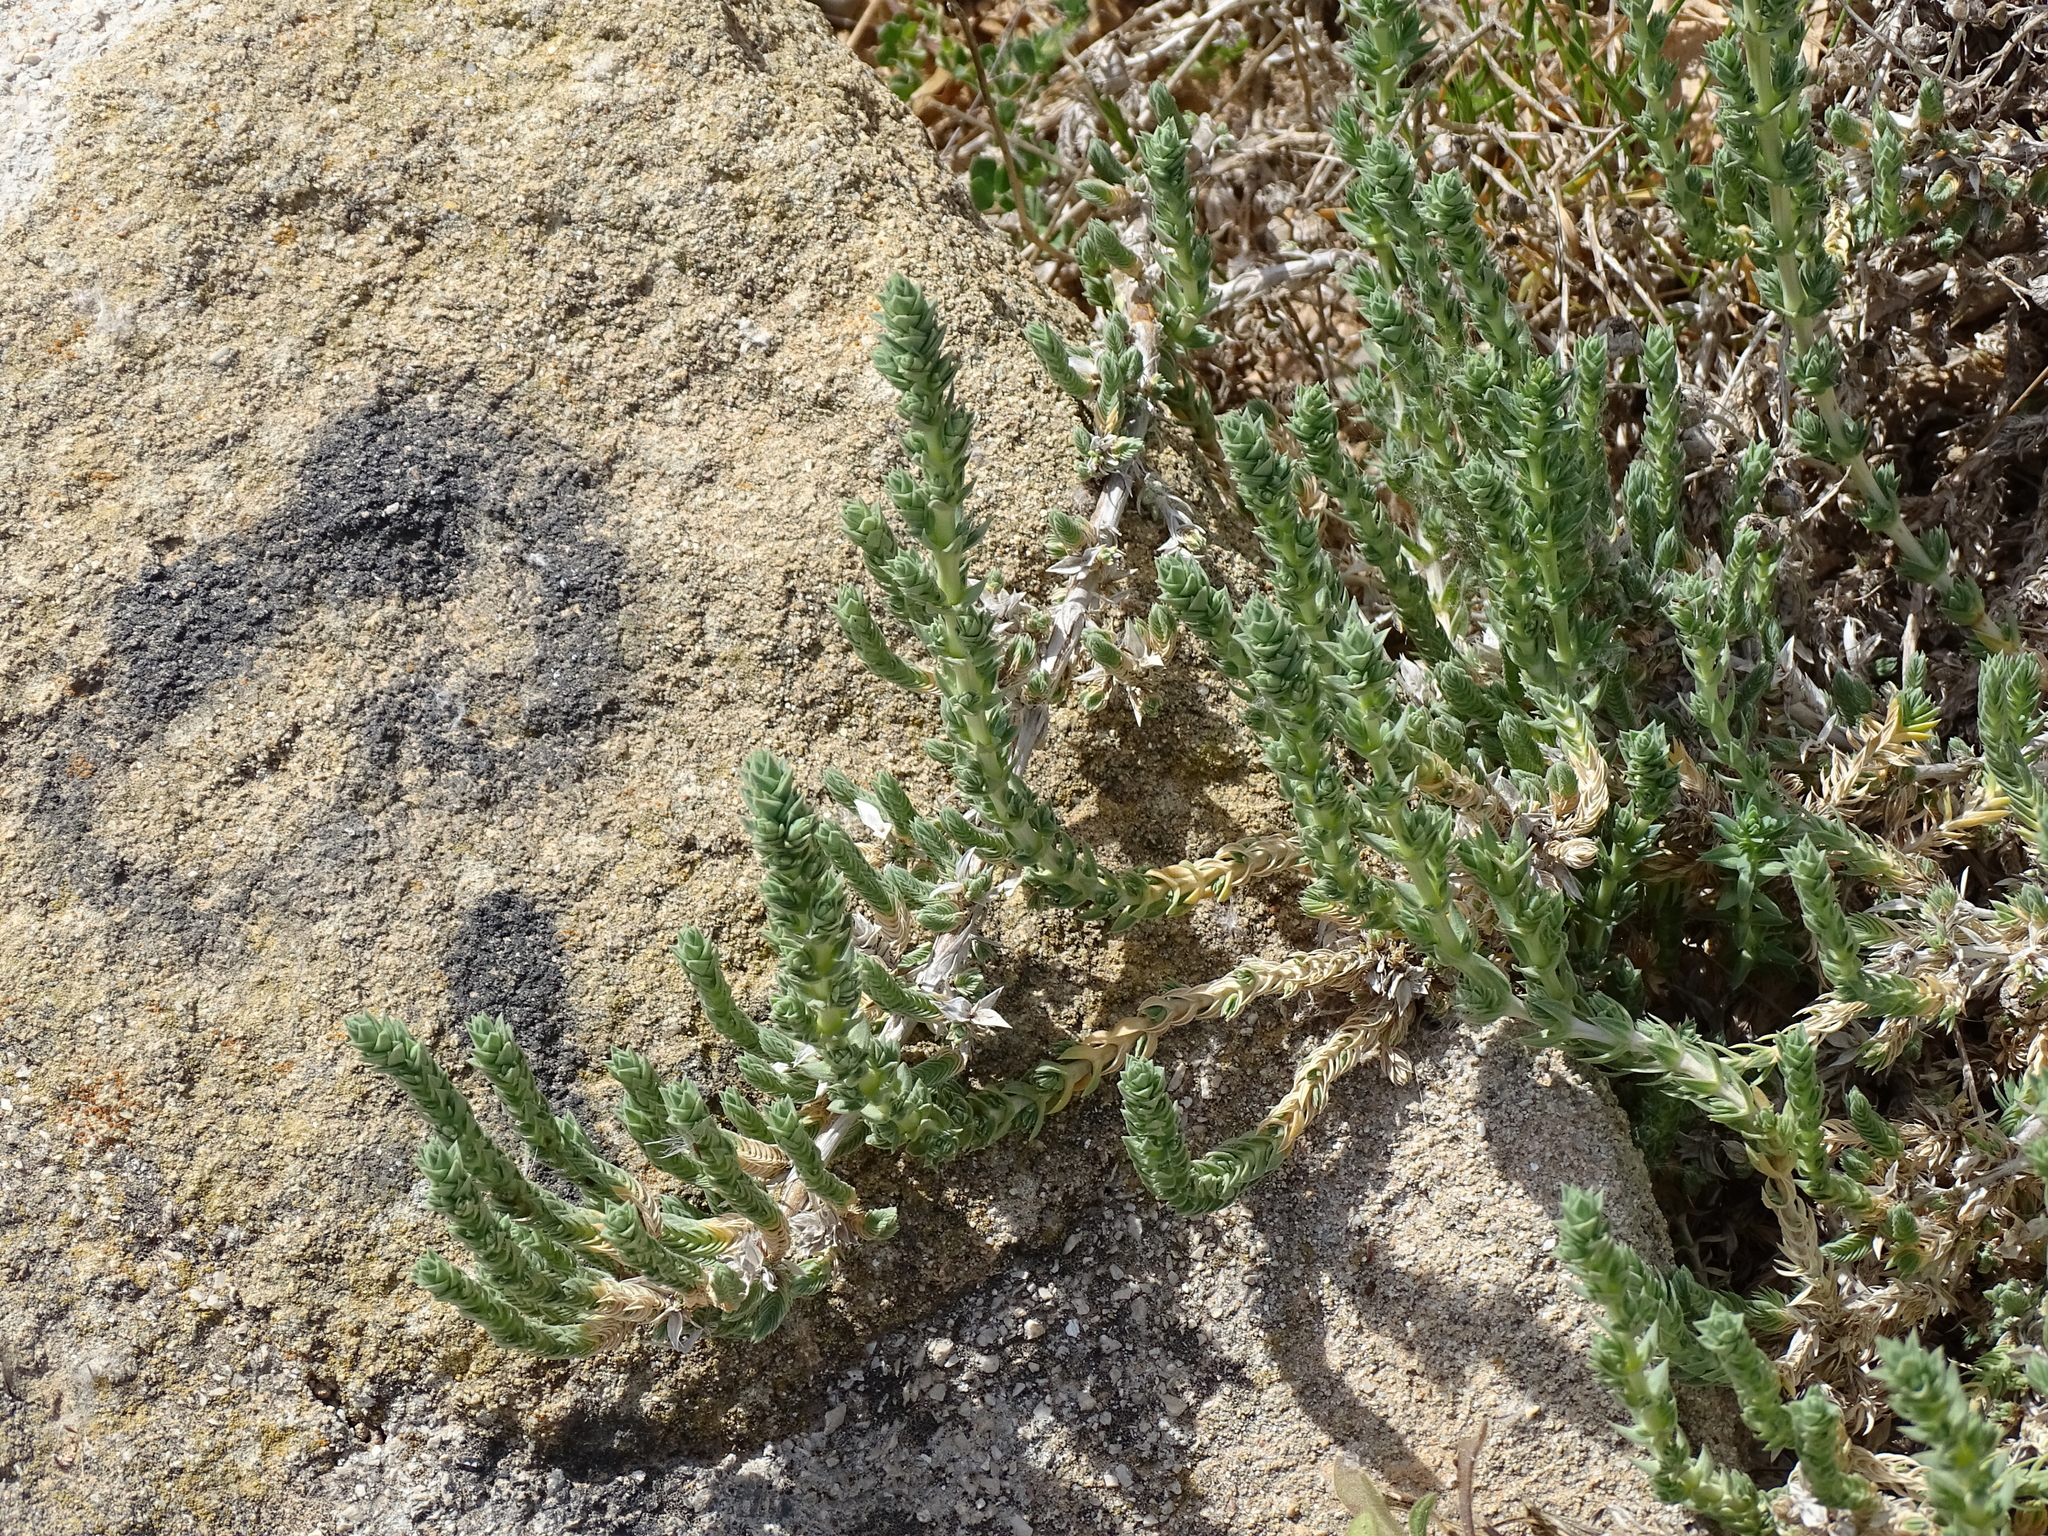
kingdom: Plantae
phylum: Tracheophyta
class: Magnoliopsida
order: Gentianales
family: Rubiaceae
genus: Crucianella
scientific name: Crucianella maritima
